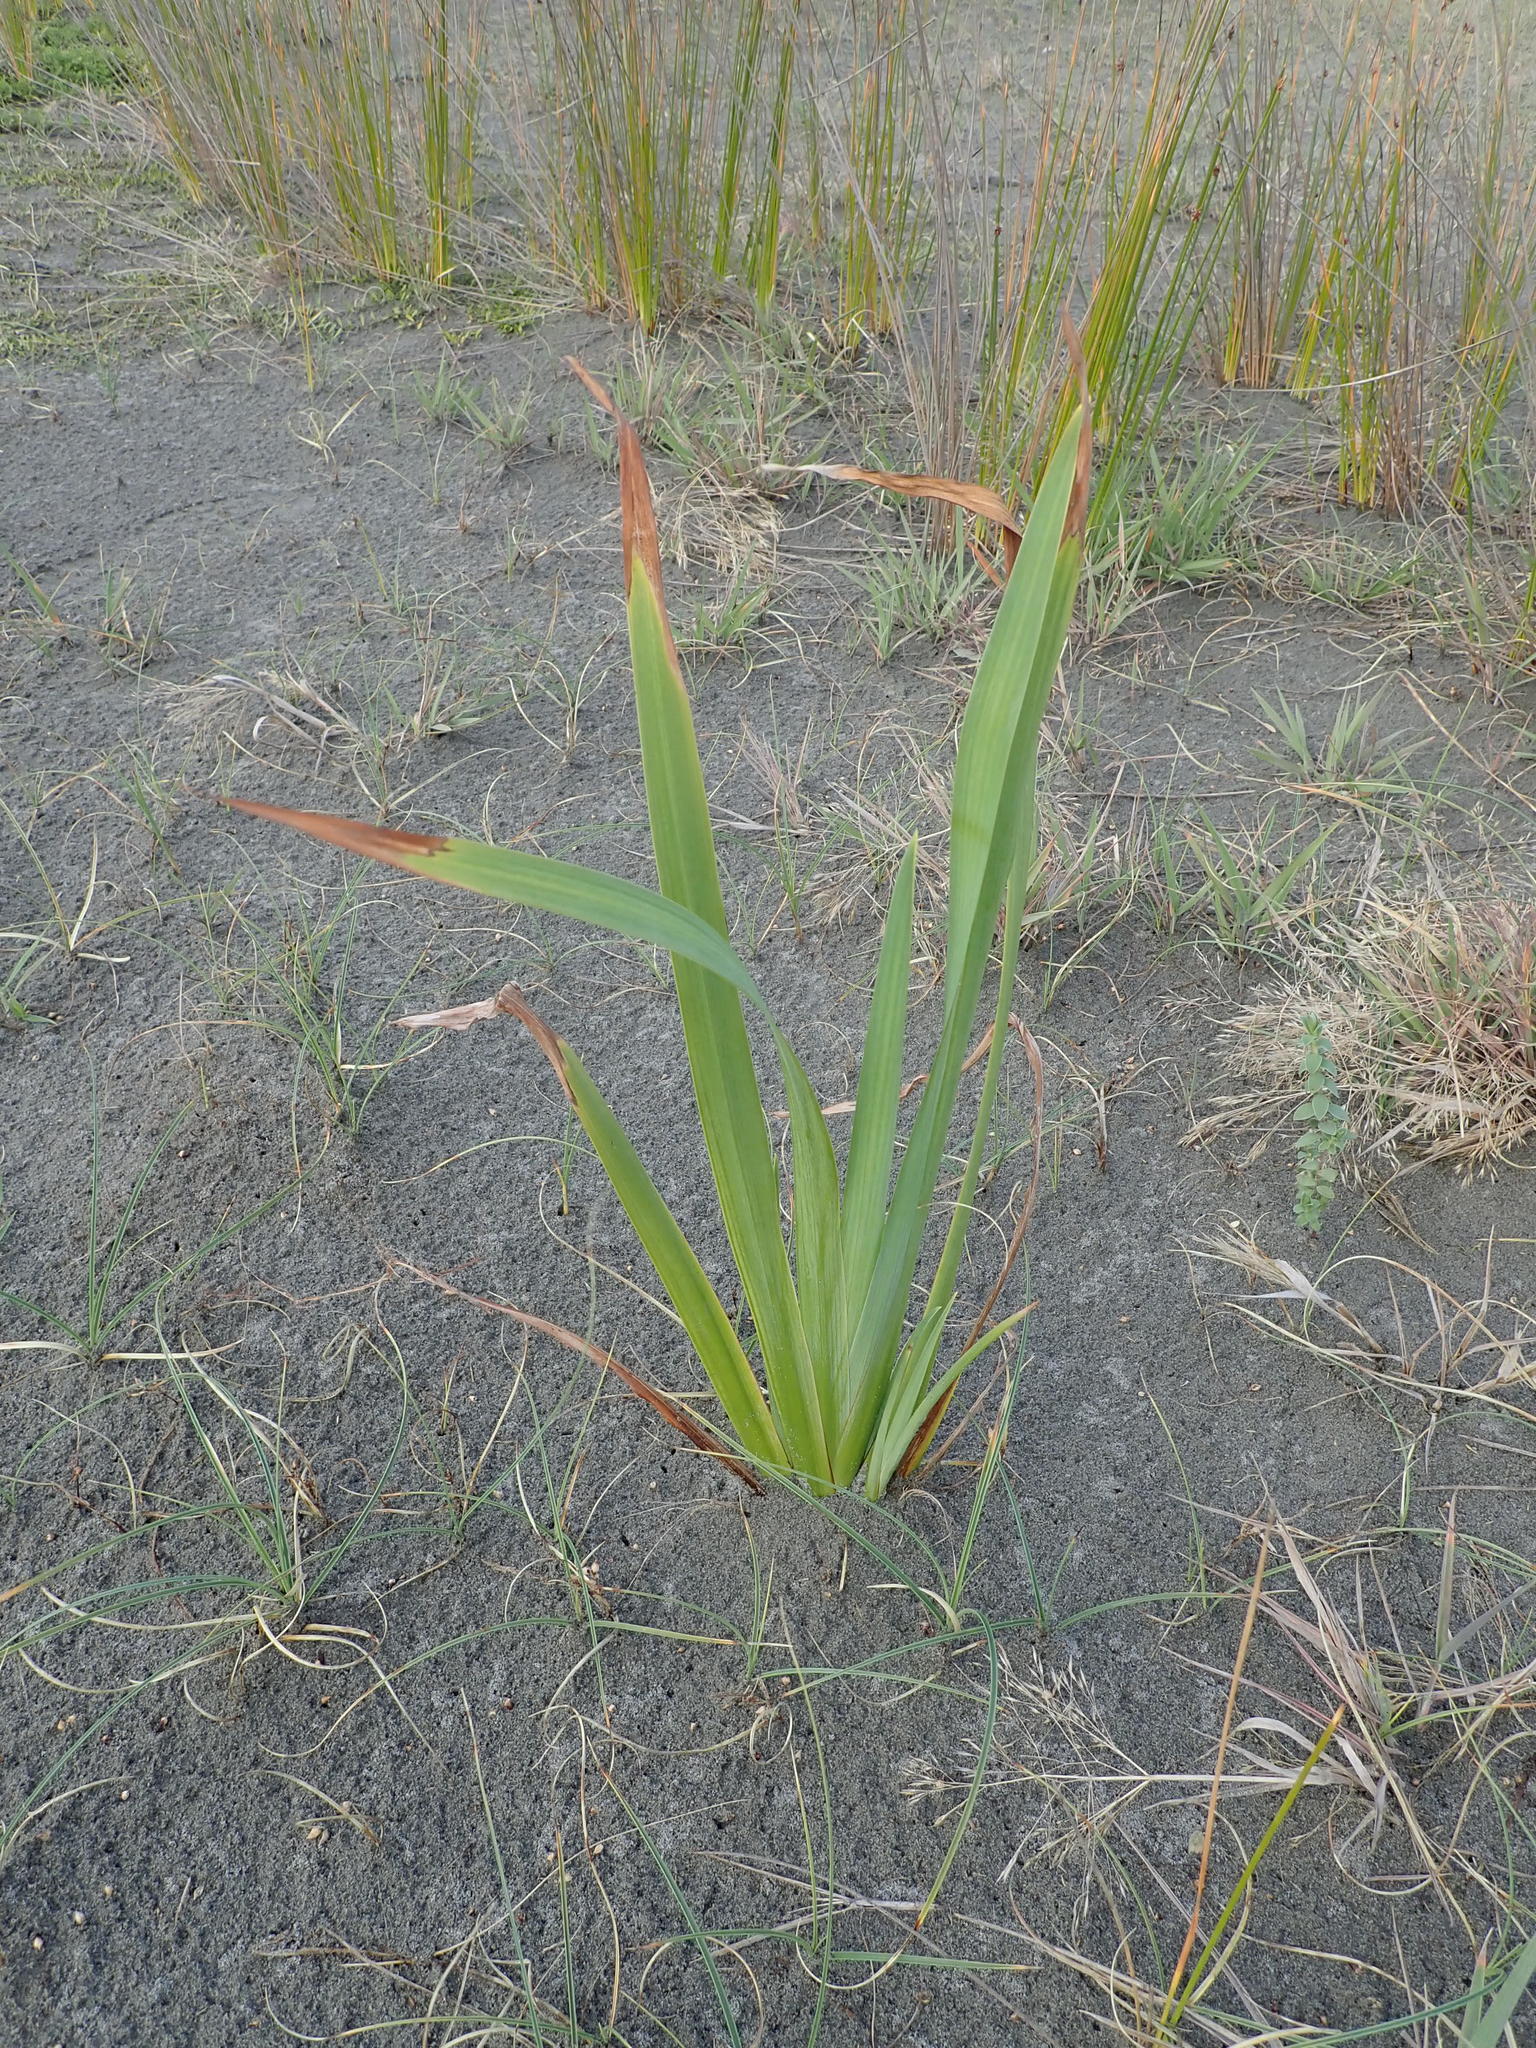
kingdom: Plantae
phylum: Tracheophyta
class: Liliopsida
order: Asparagales
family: Asphodelaceae
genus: Phormium
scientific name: Phormium tenax
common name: New zealand flax
